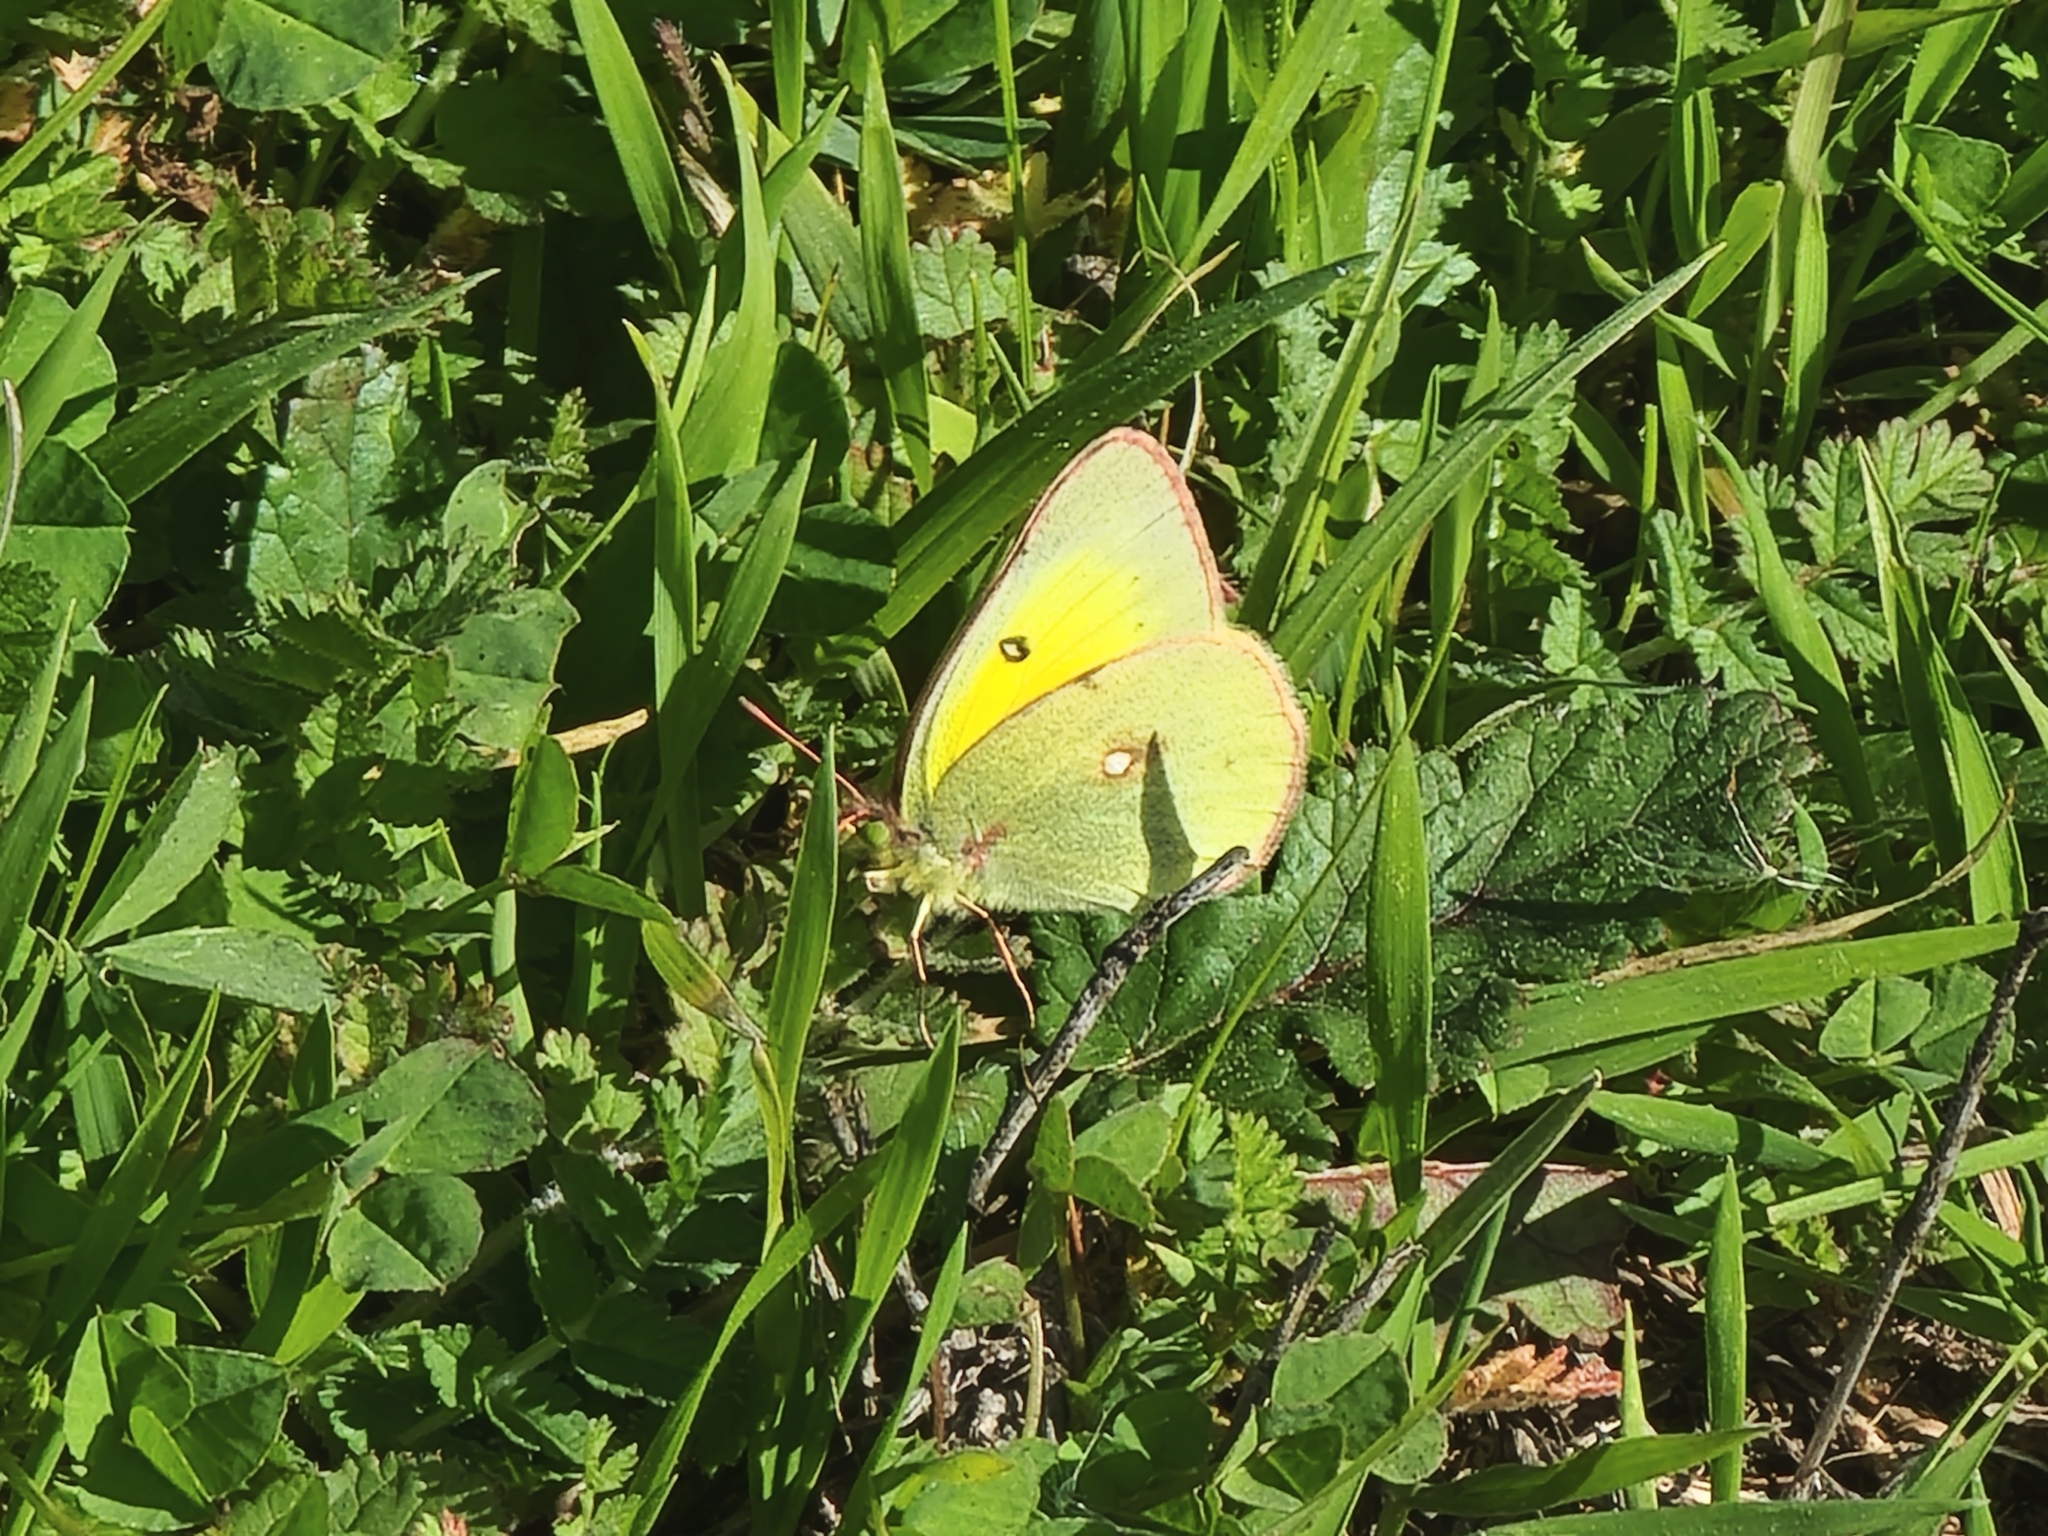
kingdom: Animalia
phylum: Arthropoda
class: Insecta
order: Lepidoptera
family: Pieridae
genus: Colias
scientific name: Colias eurytheme
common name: Alfalfa butterfly
